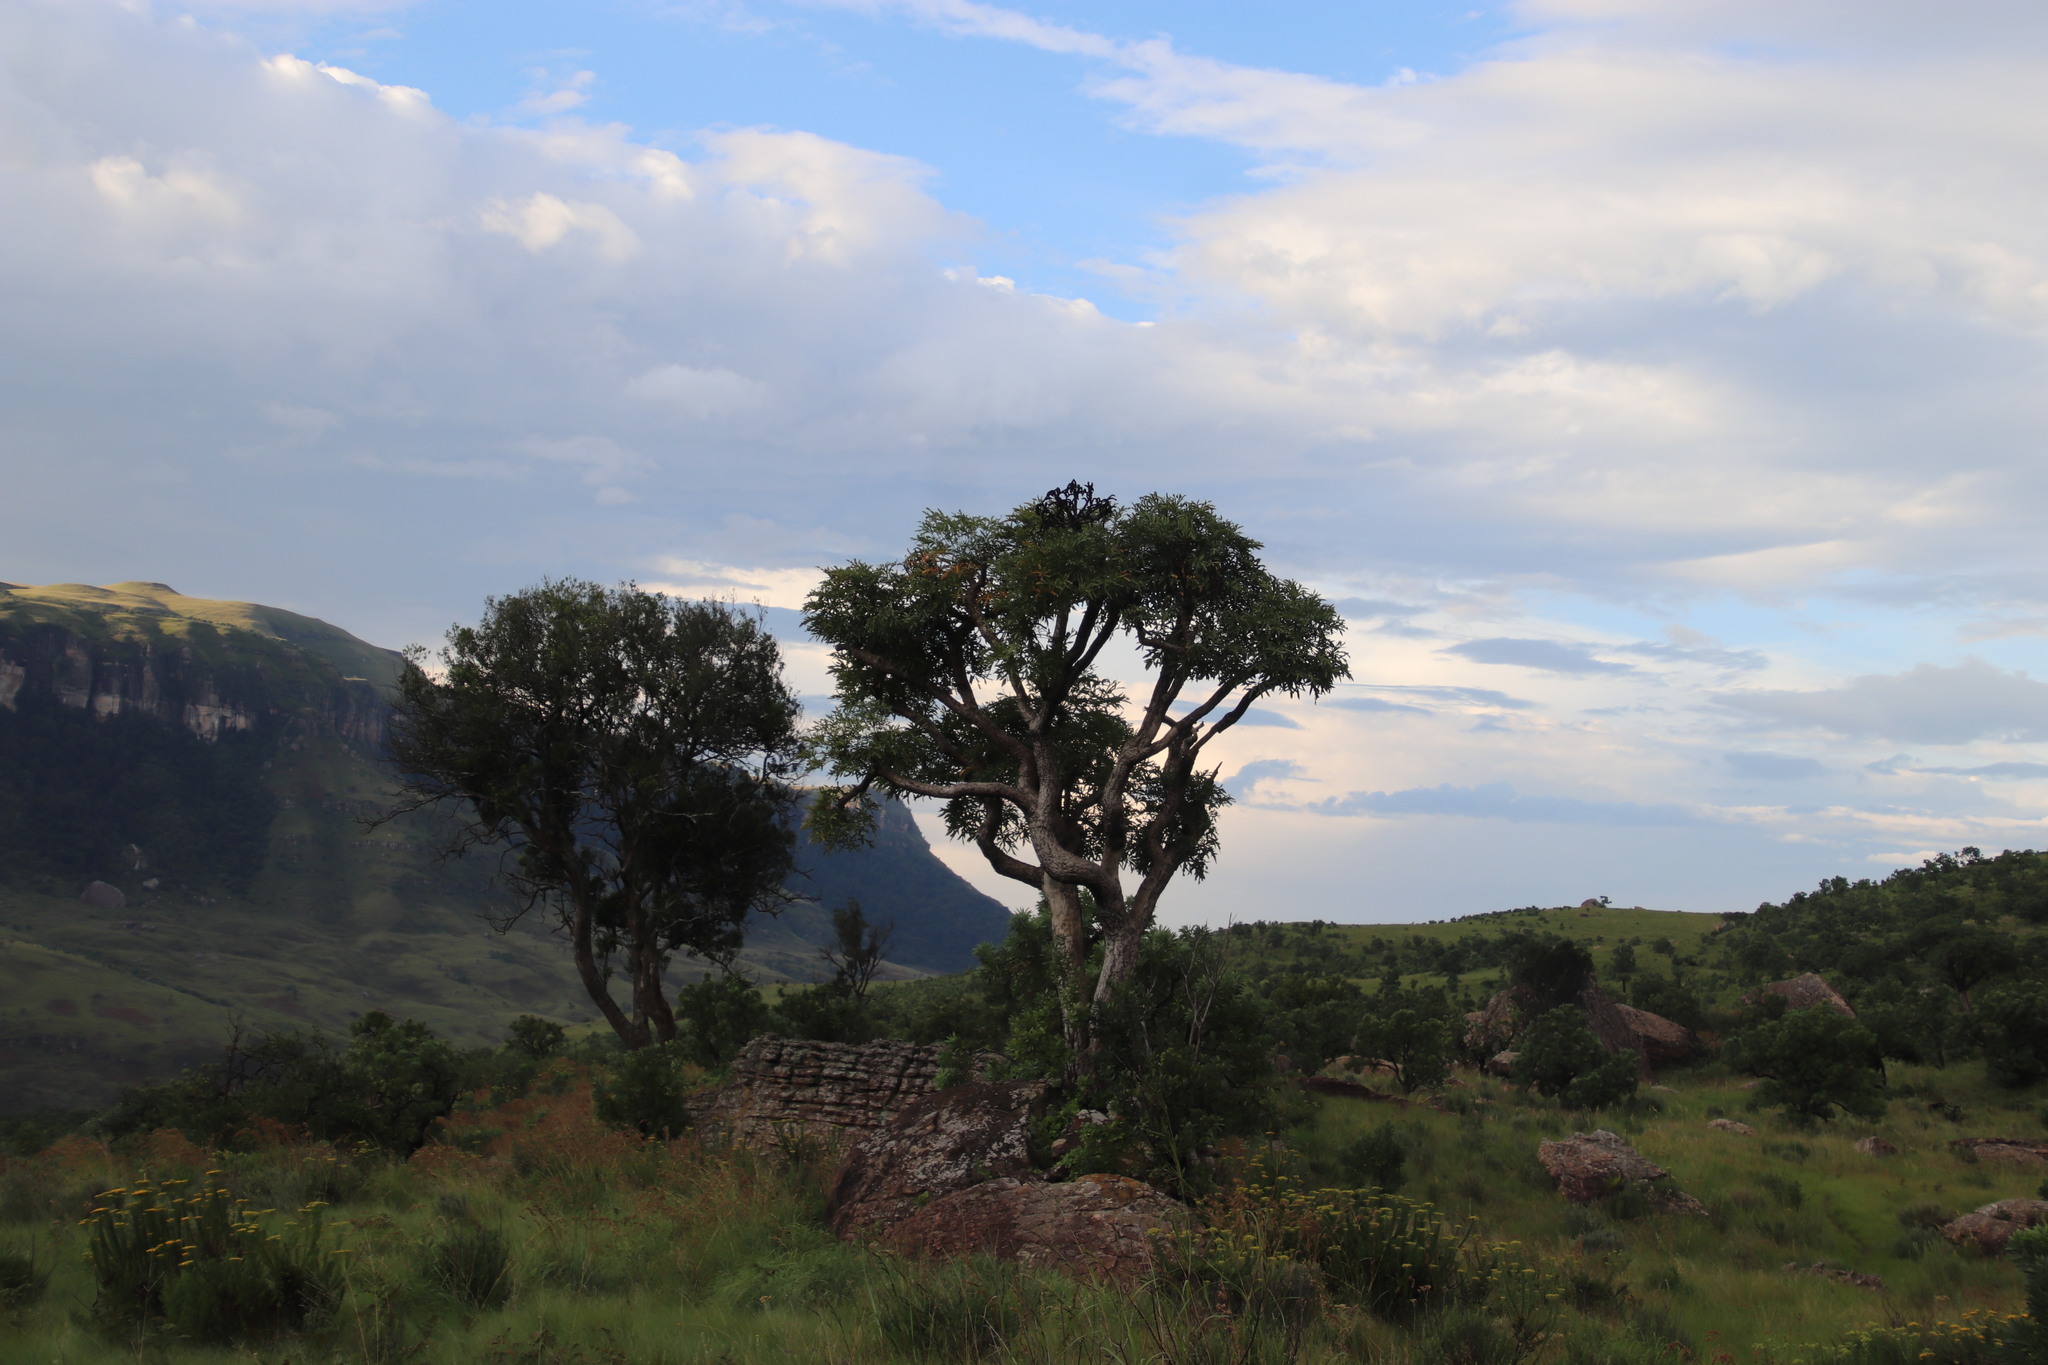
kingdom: Plantae
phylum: Tracheophyta
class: Magnoliopsida
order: Apiales
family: Araliaceae
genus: Cussonia
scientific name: Cussonia spicata
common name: Common cabbagetree
